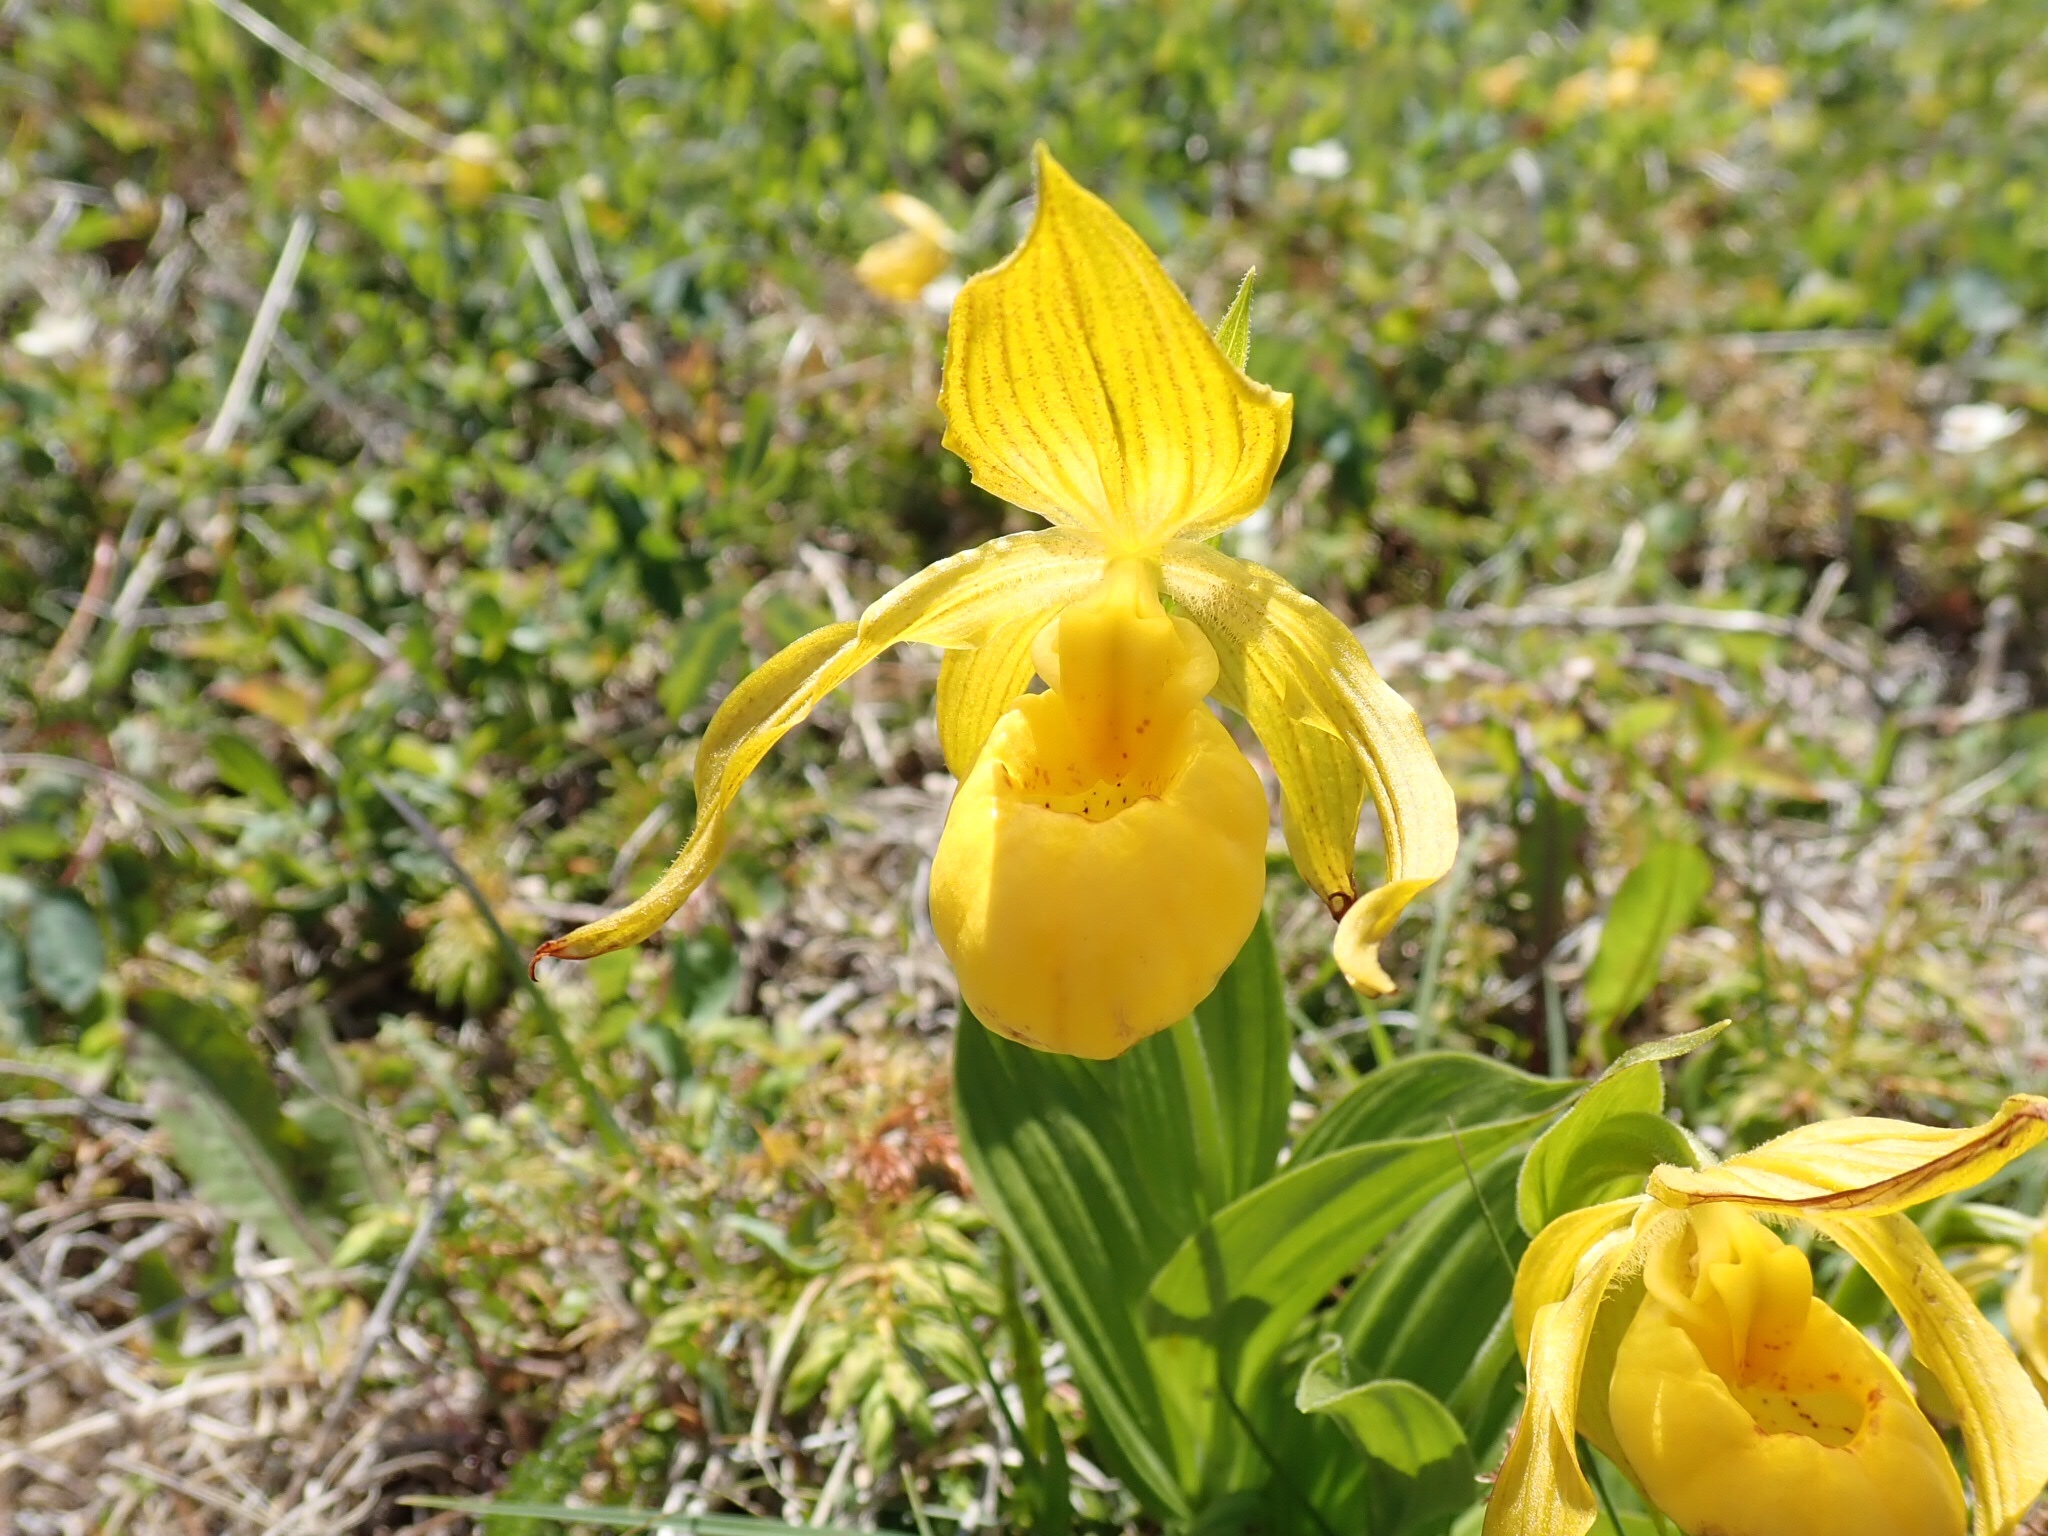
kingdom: Plantae
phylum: Tracheophyta
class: Liliopsida
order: Asparagales
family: Orchidaceae
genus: Cypripedium
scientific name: Cypripedium parviflorum
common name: American yellow lady's-slipper
